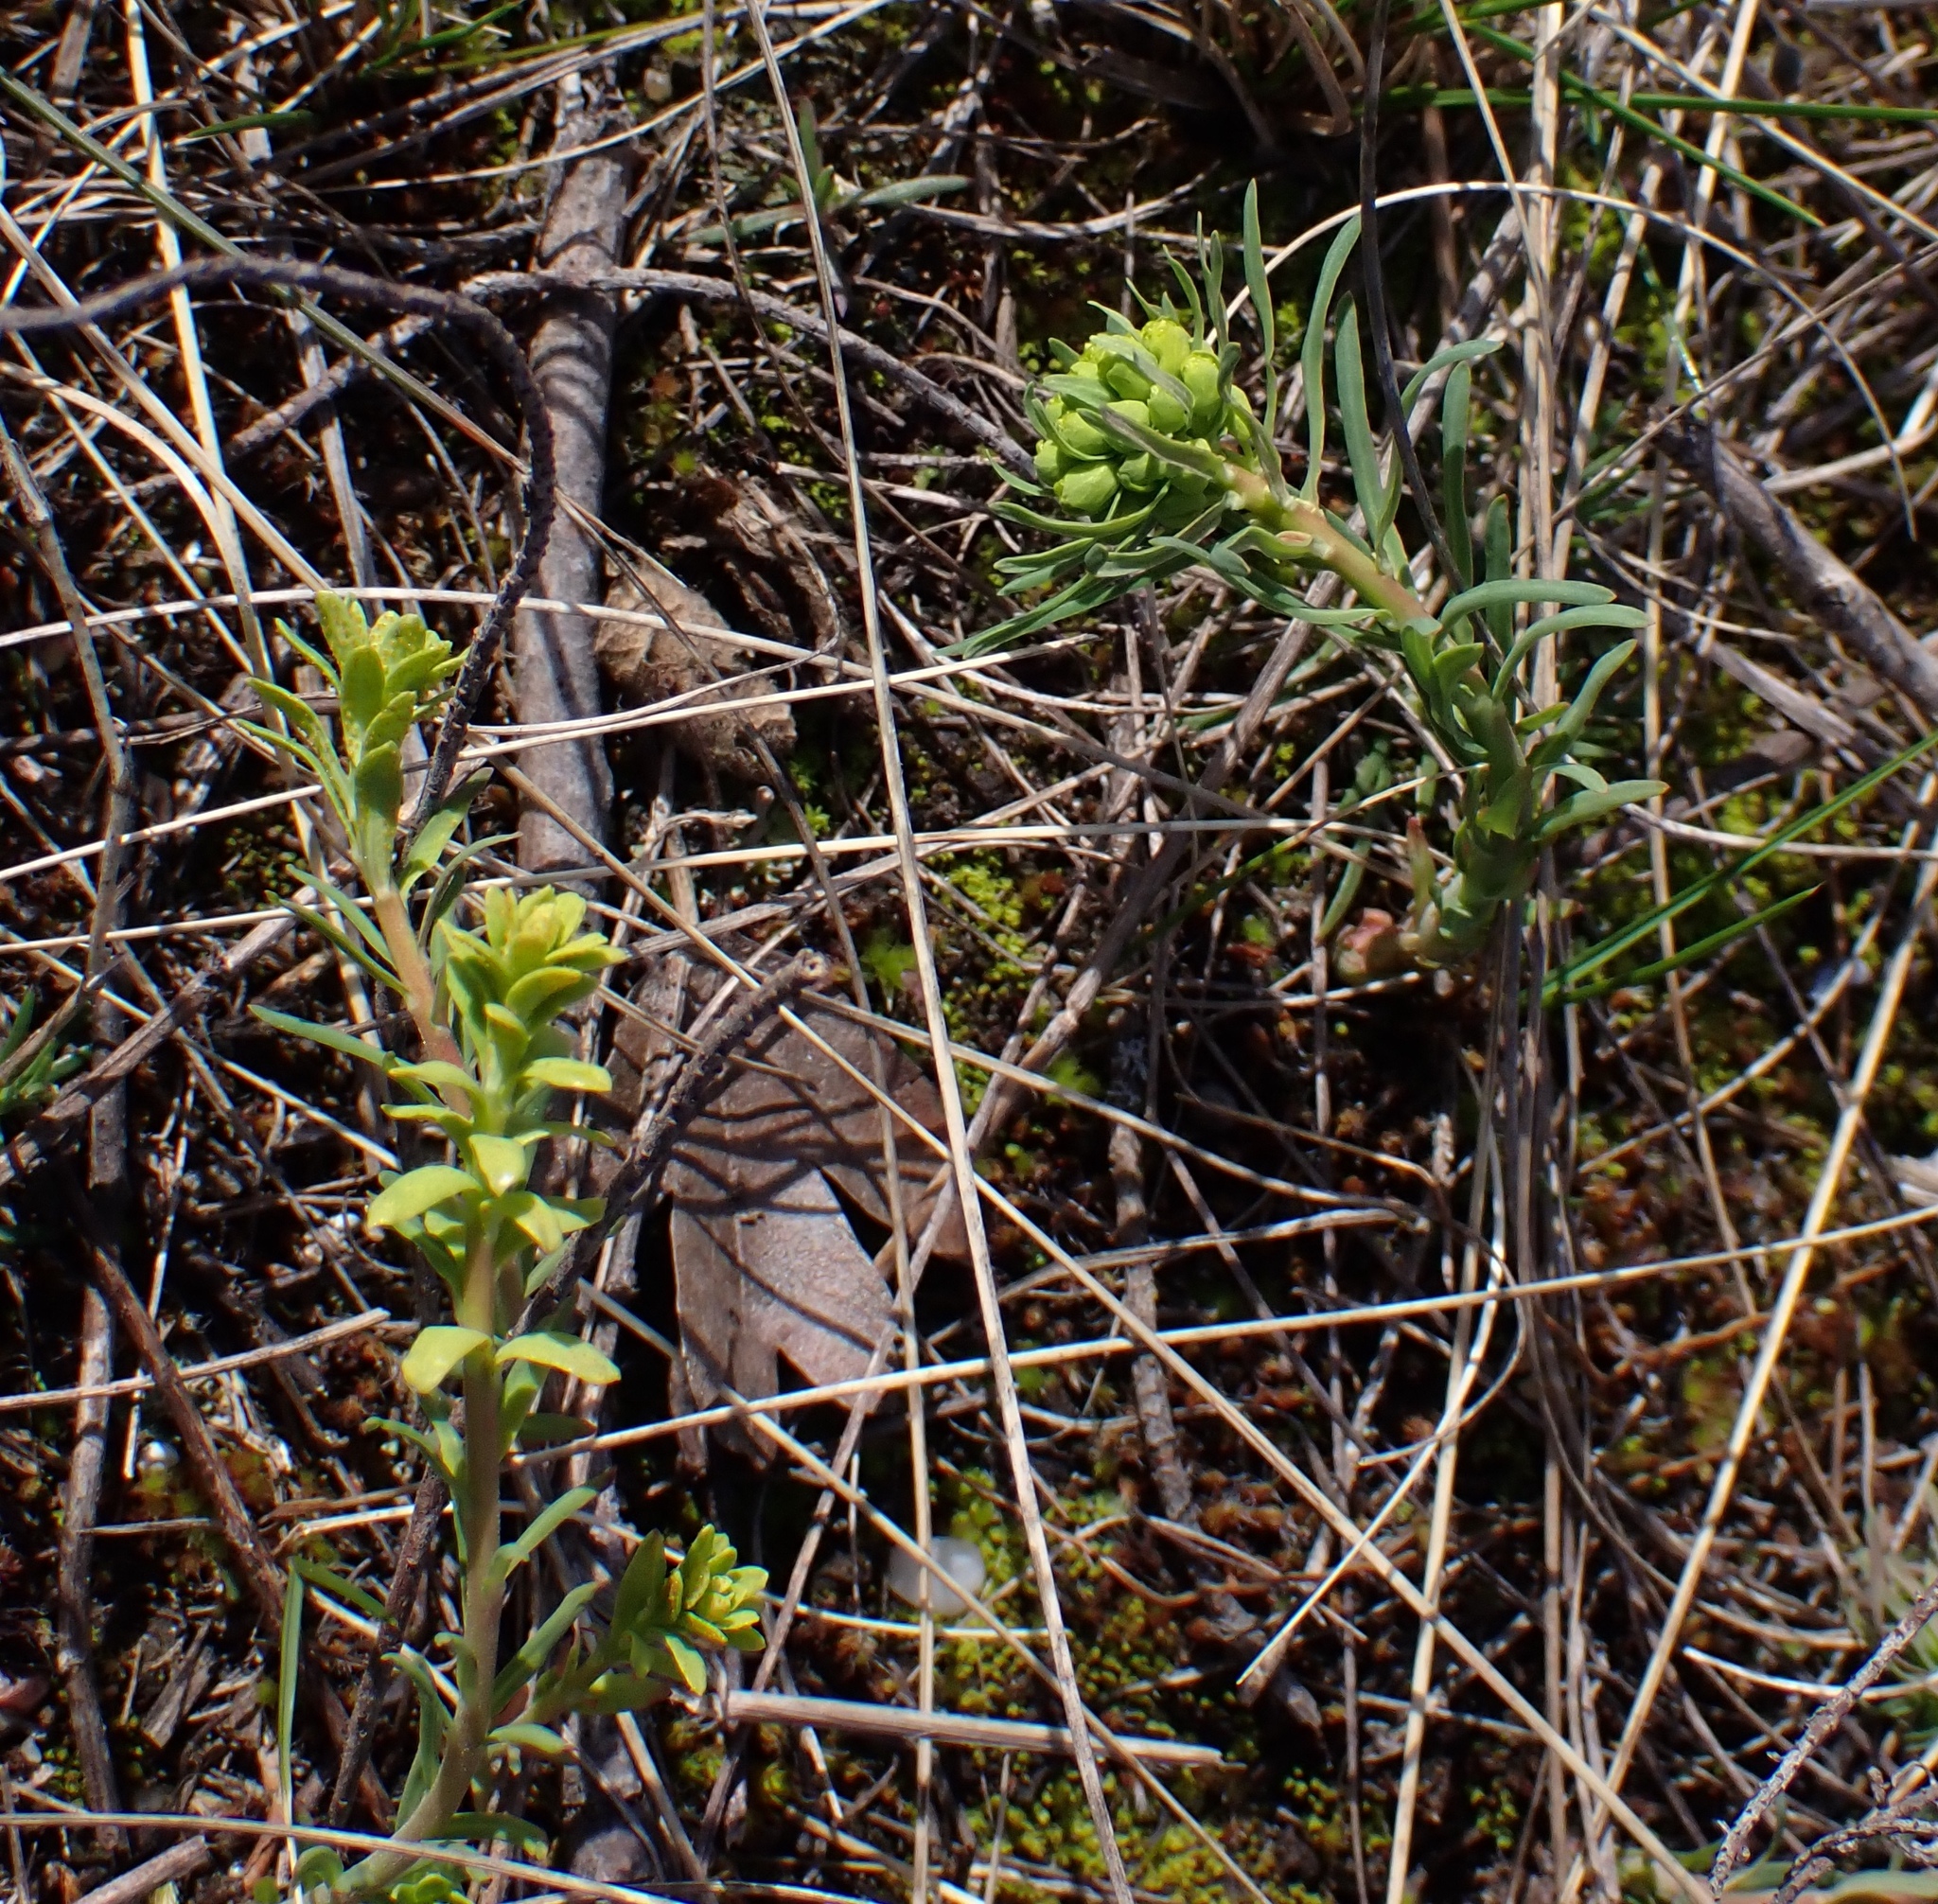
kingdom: Plantae
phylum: Tracheophyta
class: Magnoliopsida
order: Malpighiales
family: Euphorbiaceae
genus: Euphorbia
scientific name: Euphorbia cyparissias
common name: Cypress spurge
